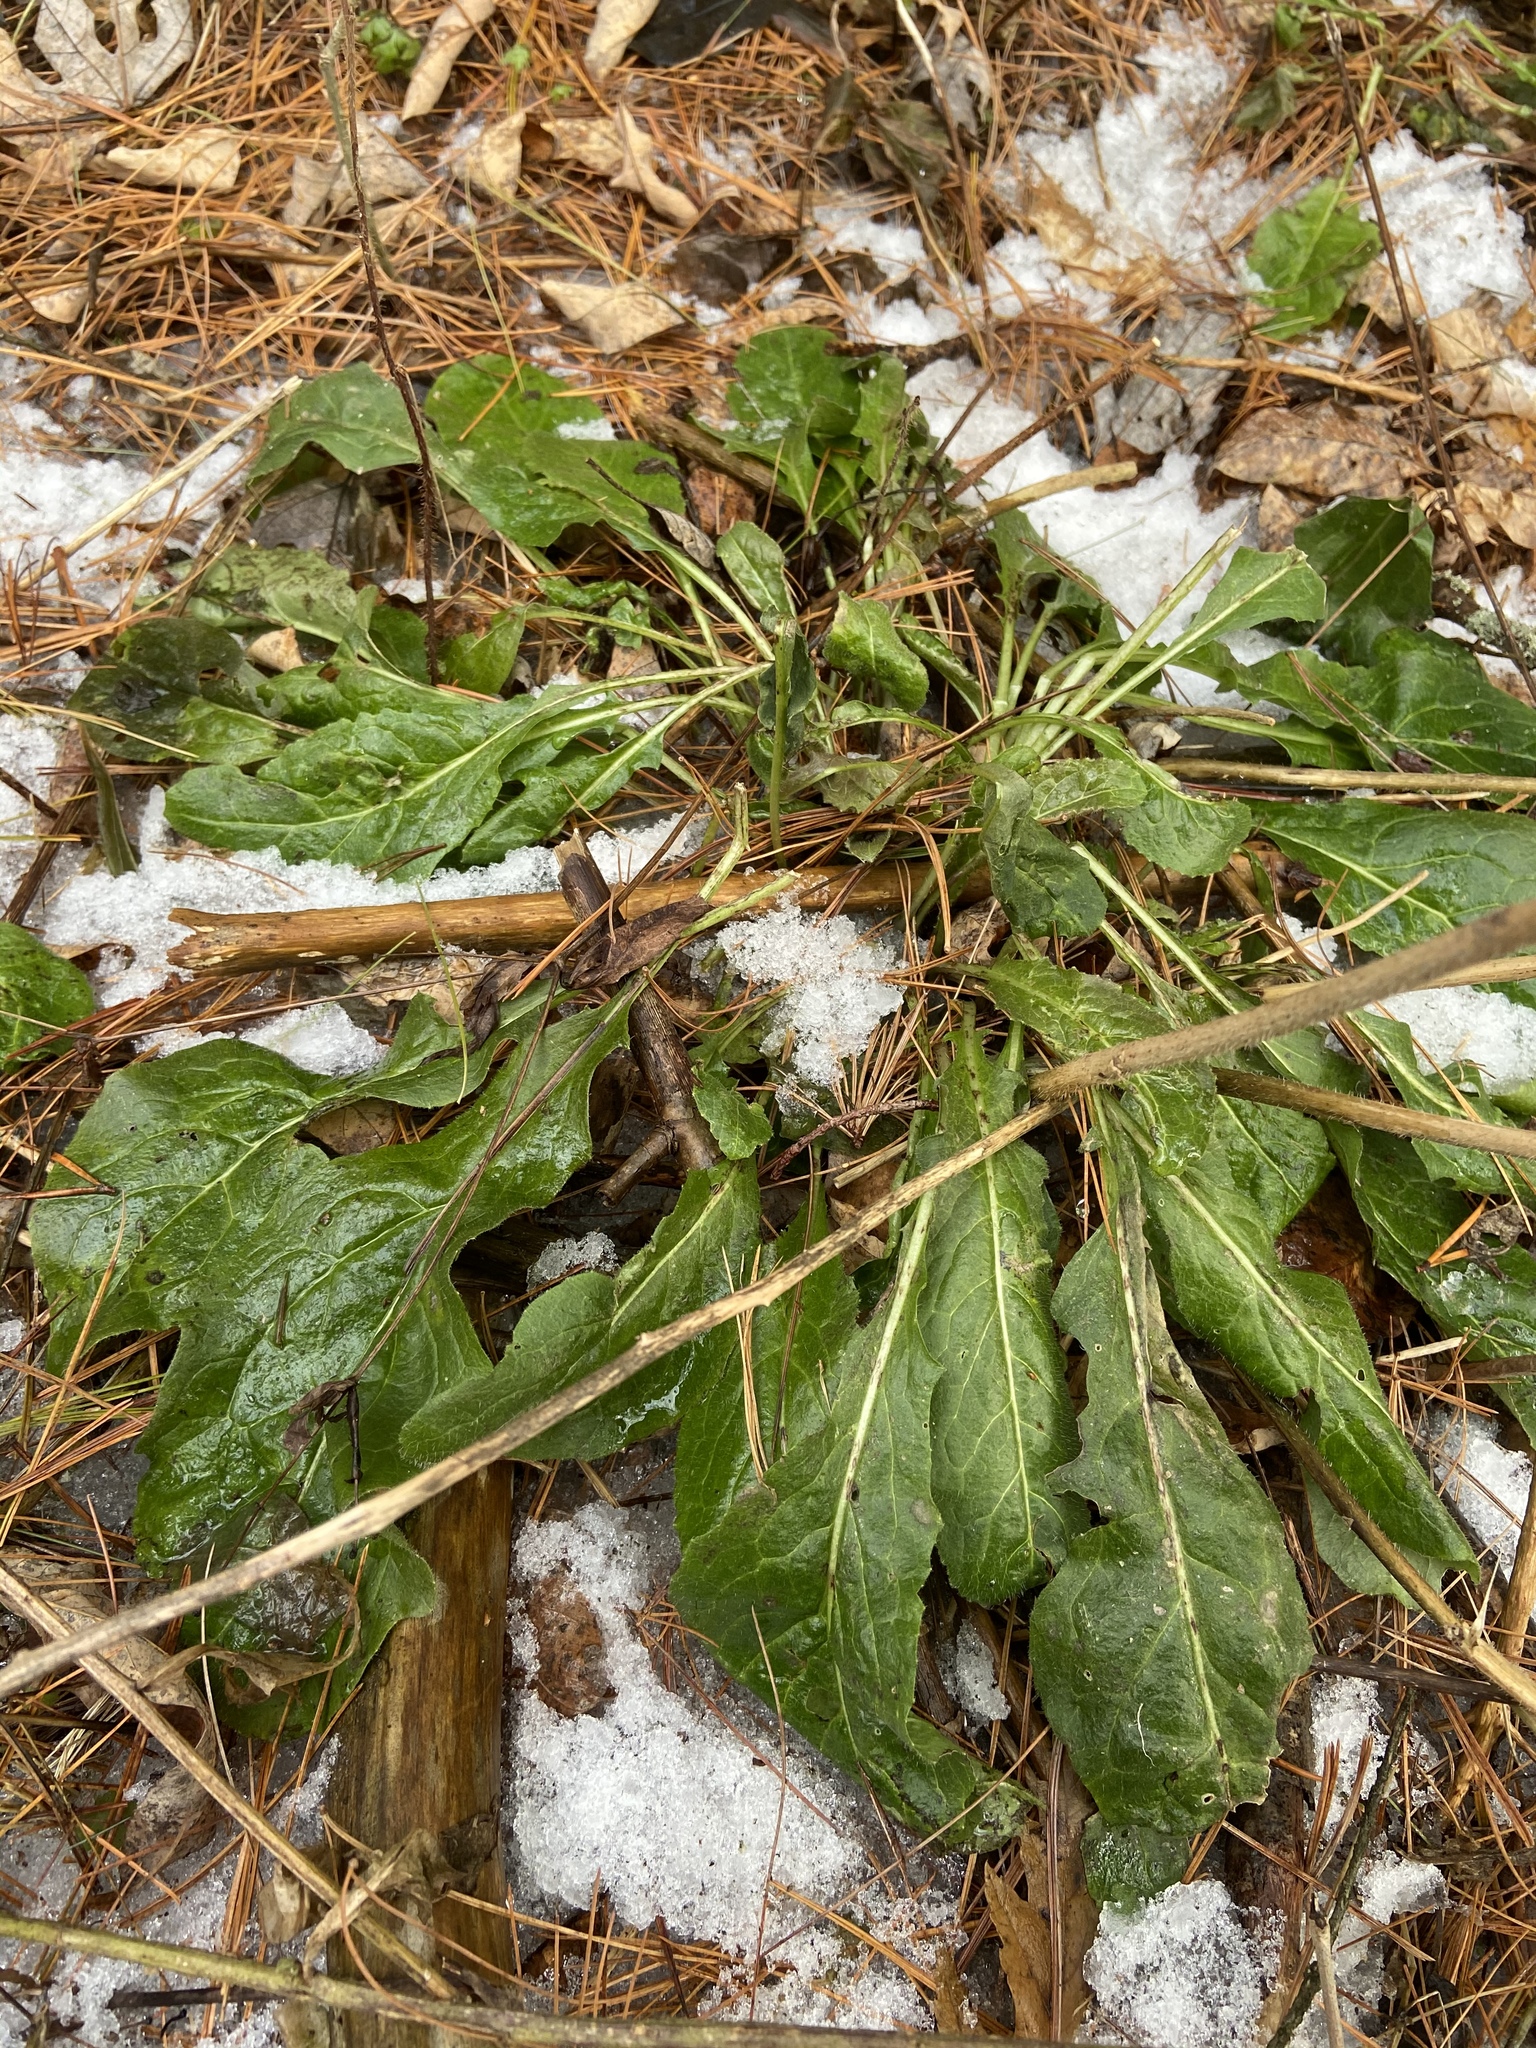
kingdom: Plantae
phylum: Tracheophyta
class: Magnoliopsida
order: Brassicales
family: Brassicaceae
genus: Hesperis
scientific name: Hesperis matronalis
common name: Dame's-violet
